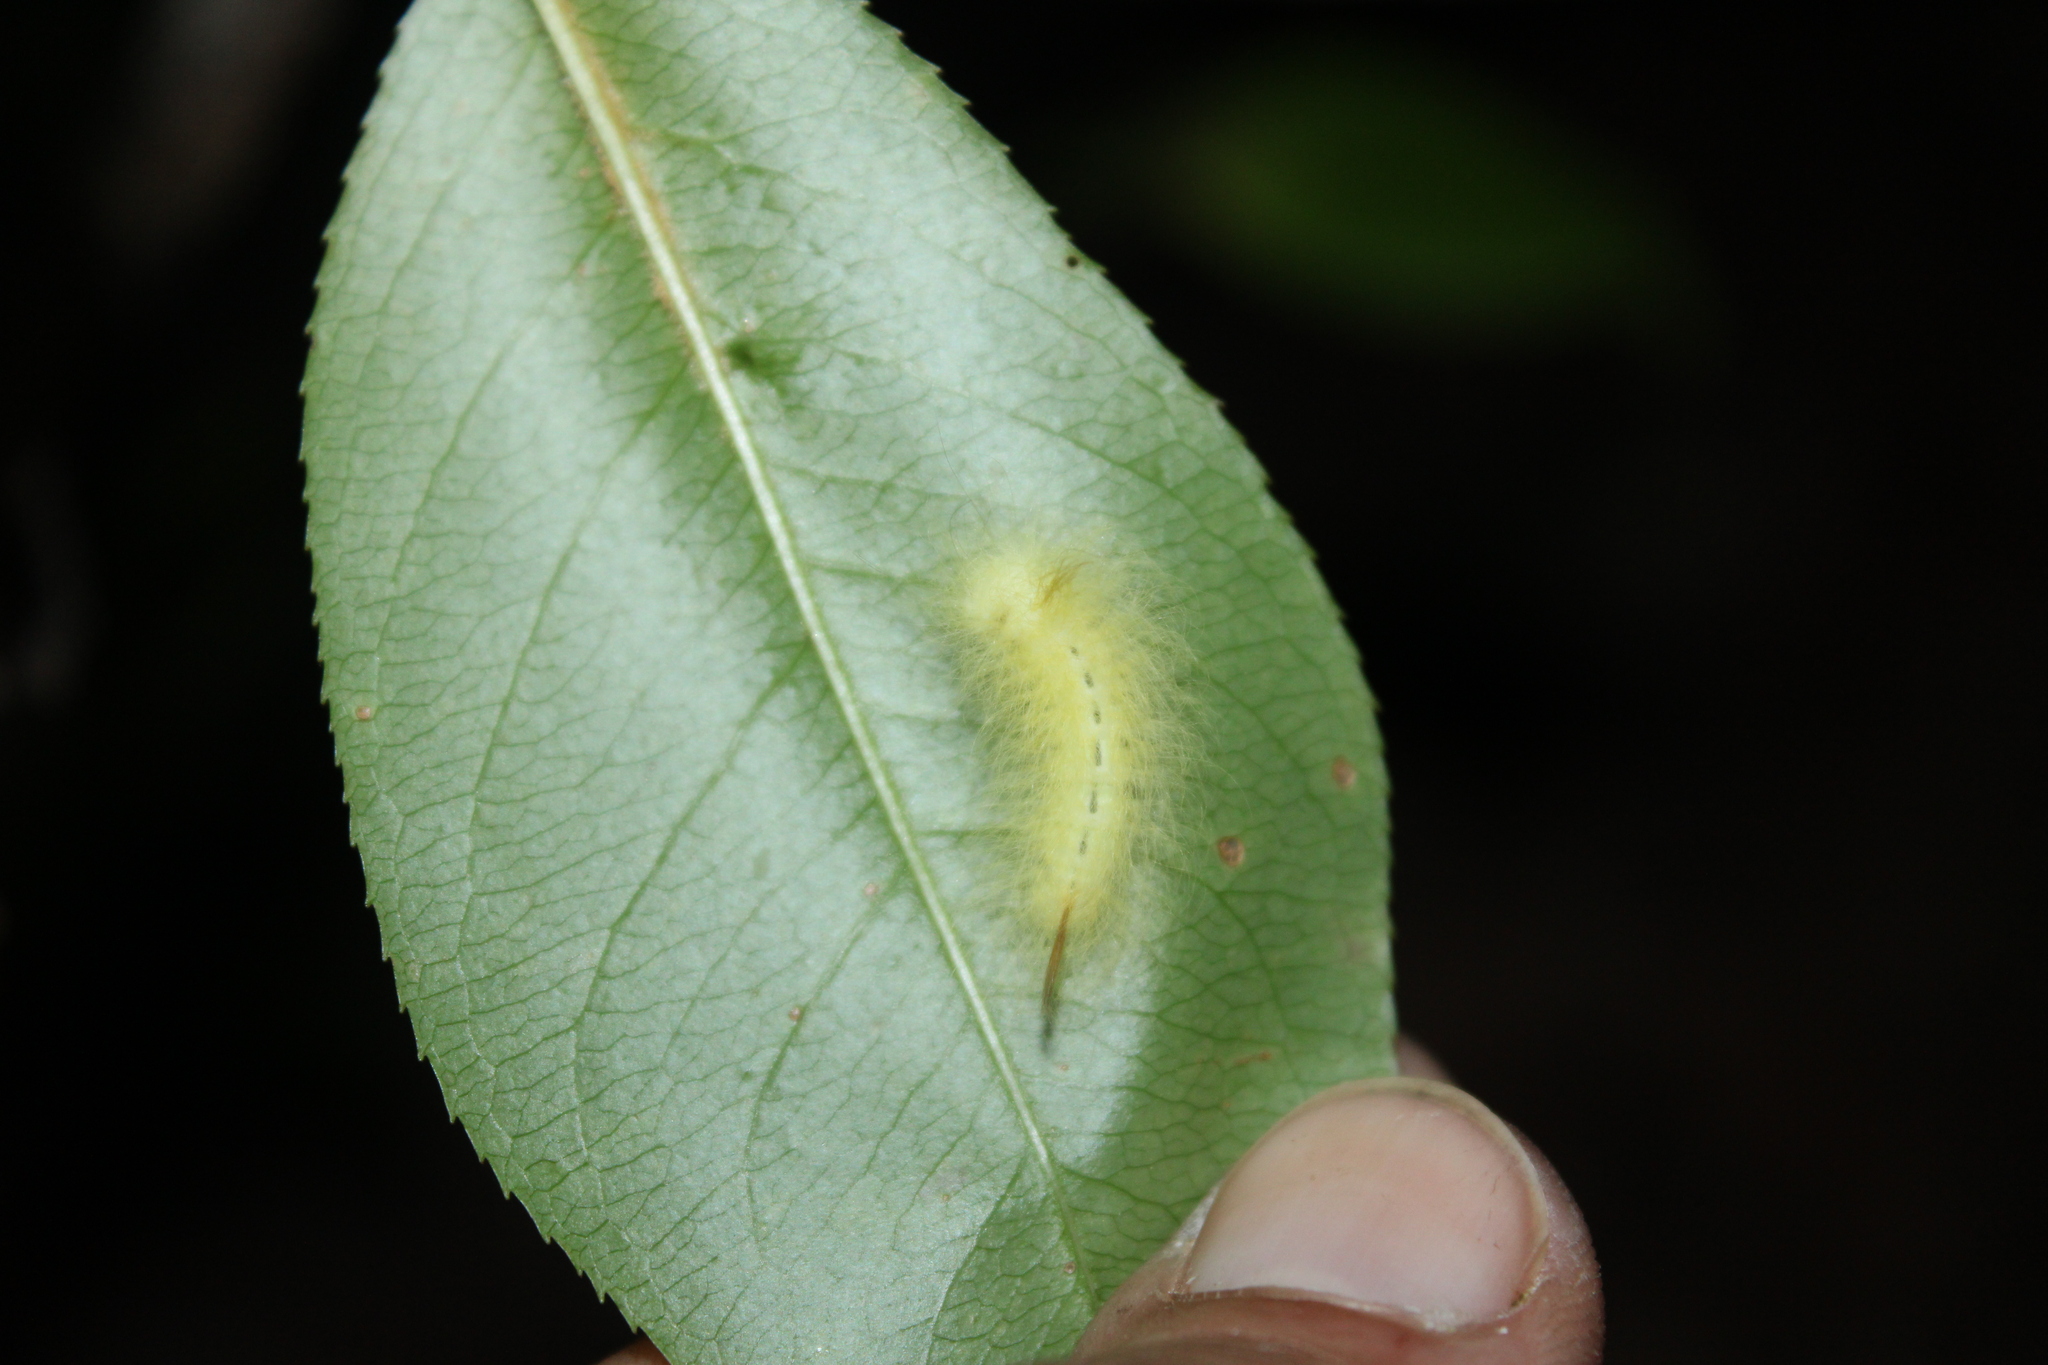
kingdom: Animalia
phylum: Arthropoda
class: Insecta
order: Lepidoptera
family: Apatelodidae
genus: Hygrochroa
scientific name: Hygrochroa Apatelodes torrefacta
